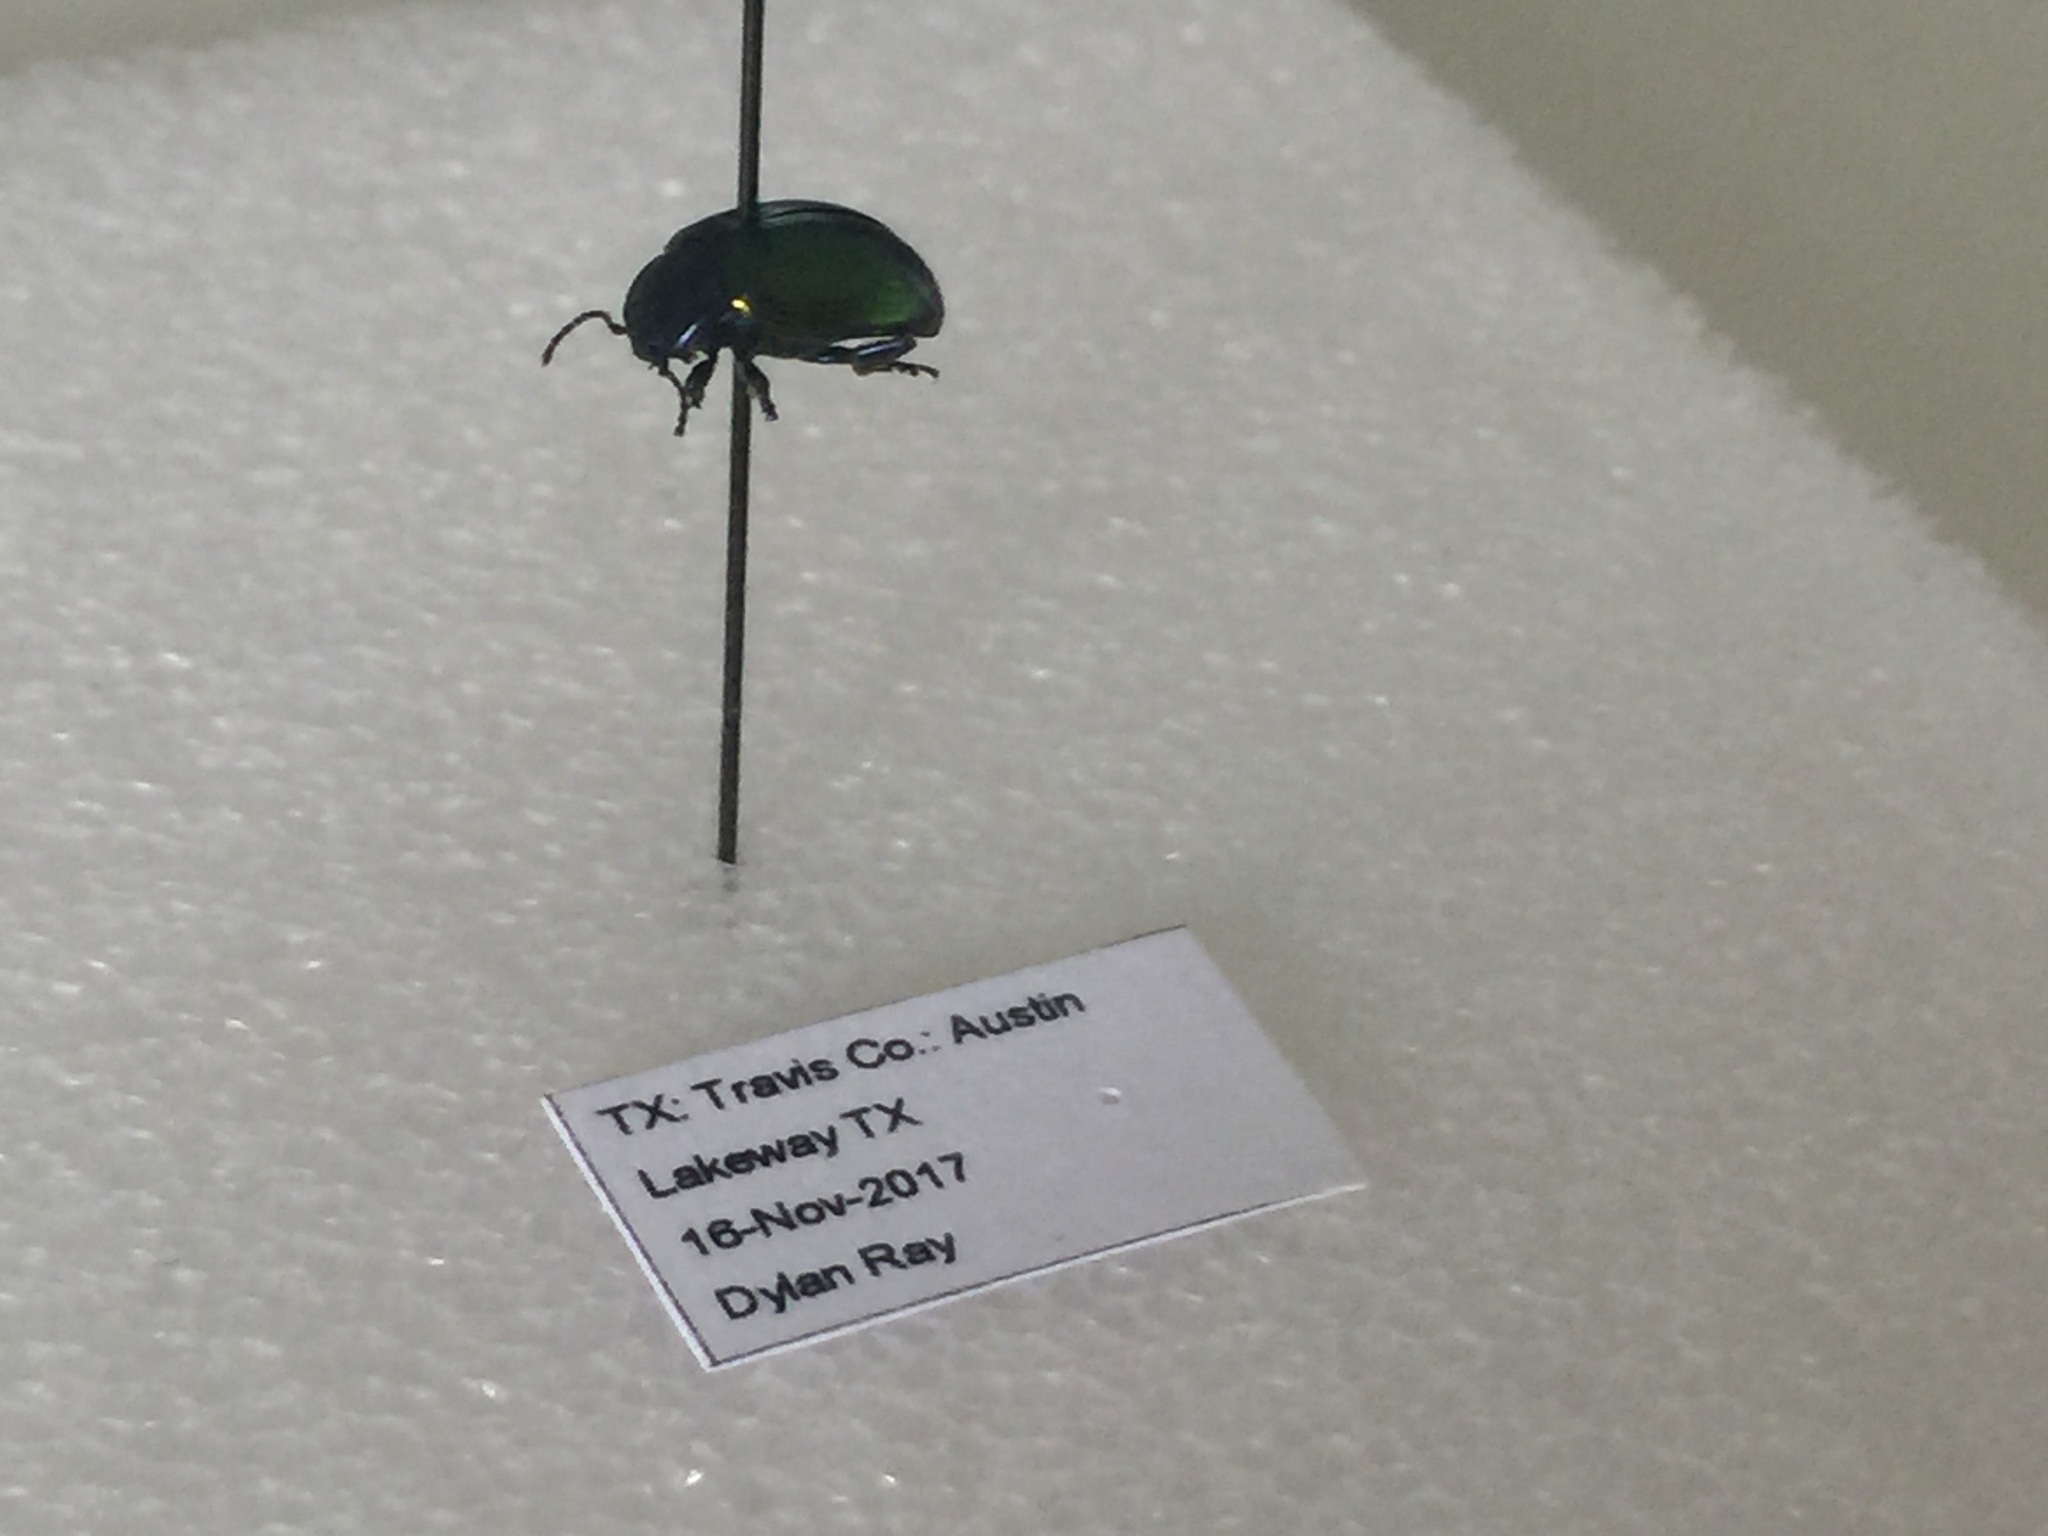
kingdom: Animalia
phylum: Arthropoda
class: Insecta
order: Coleoptera
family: Chrysomelidae
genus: Chrysolina
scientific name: Chrysolina auripennis
